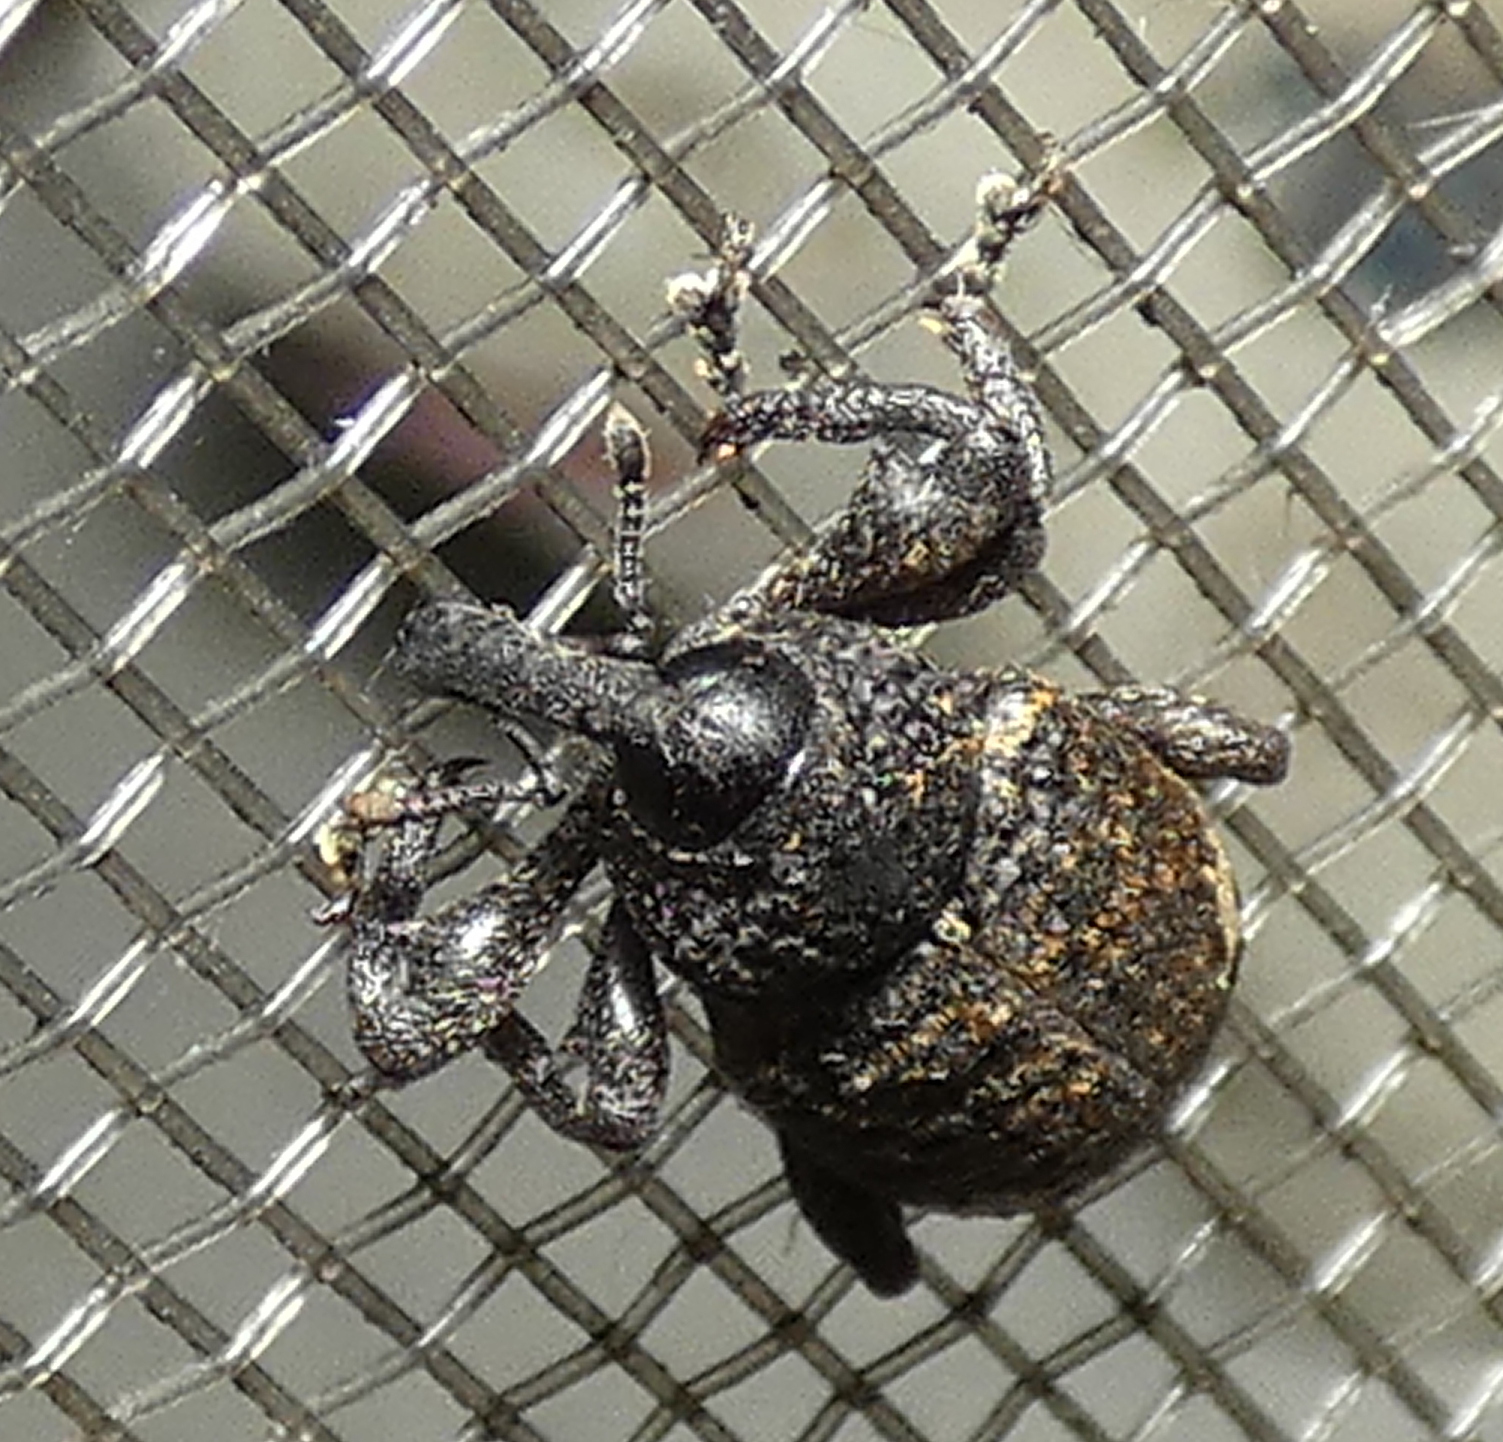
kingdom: Animalia
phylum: Arthropoda
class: Insecta
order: Coleoptera
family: Curculionidae
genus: Heilipus
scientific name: Heilipus tuberculosus
